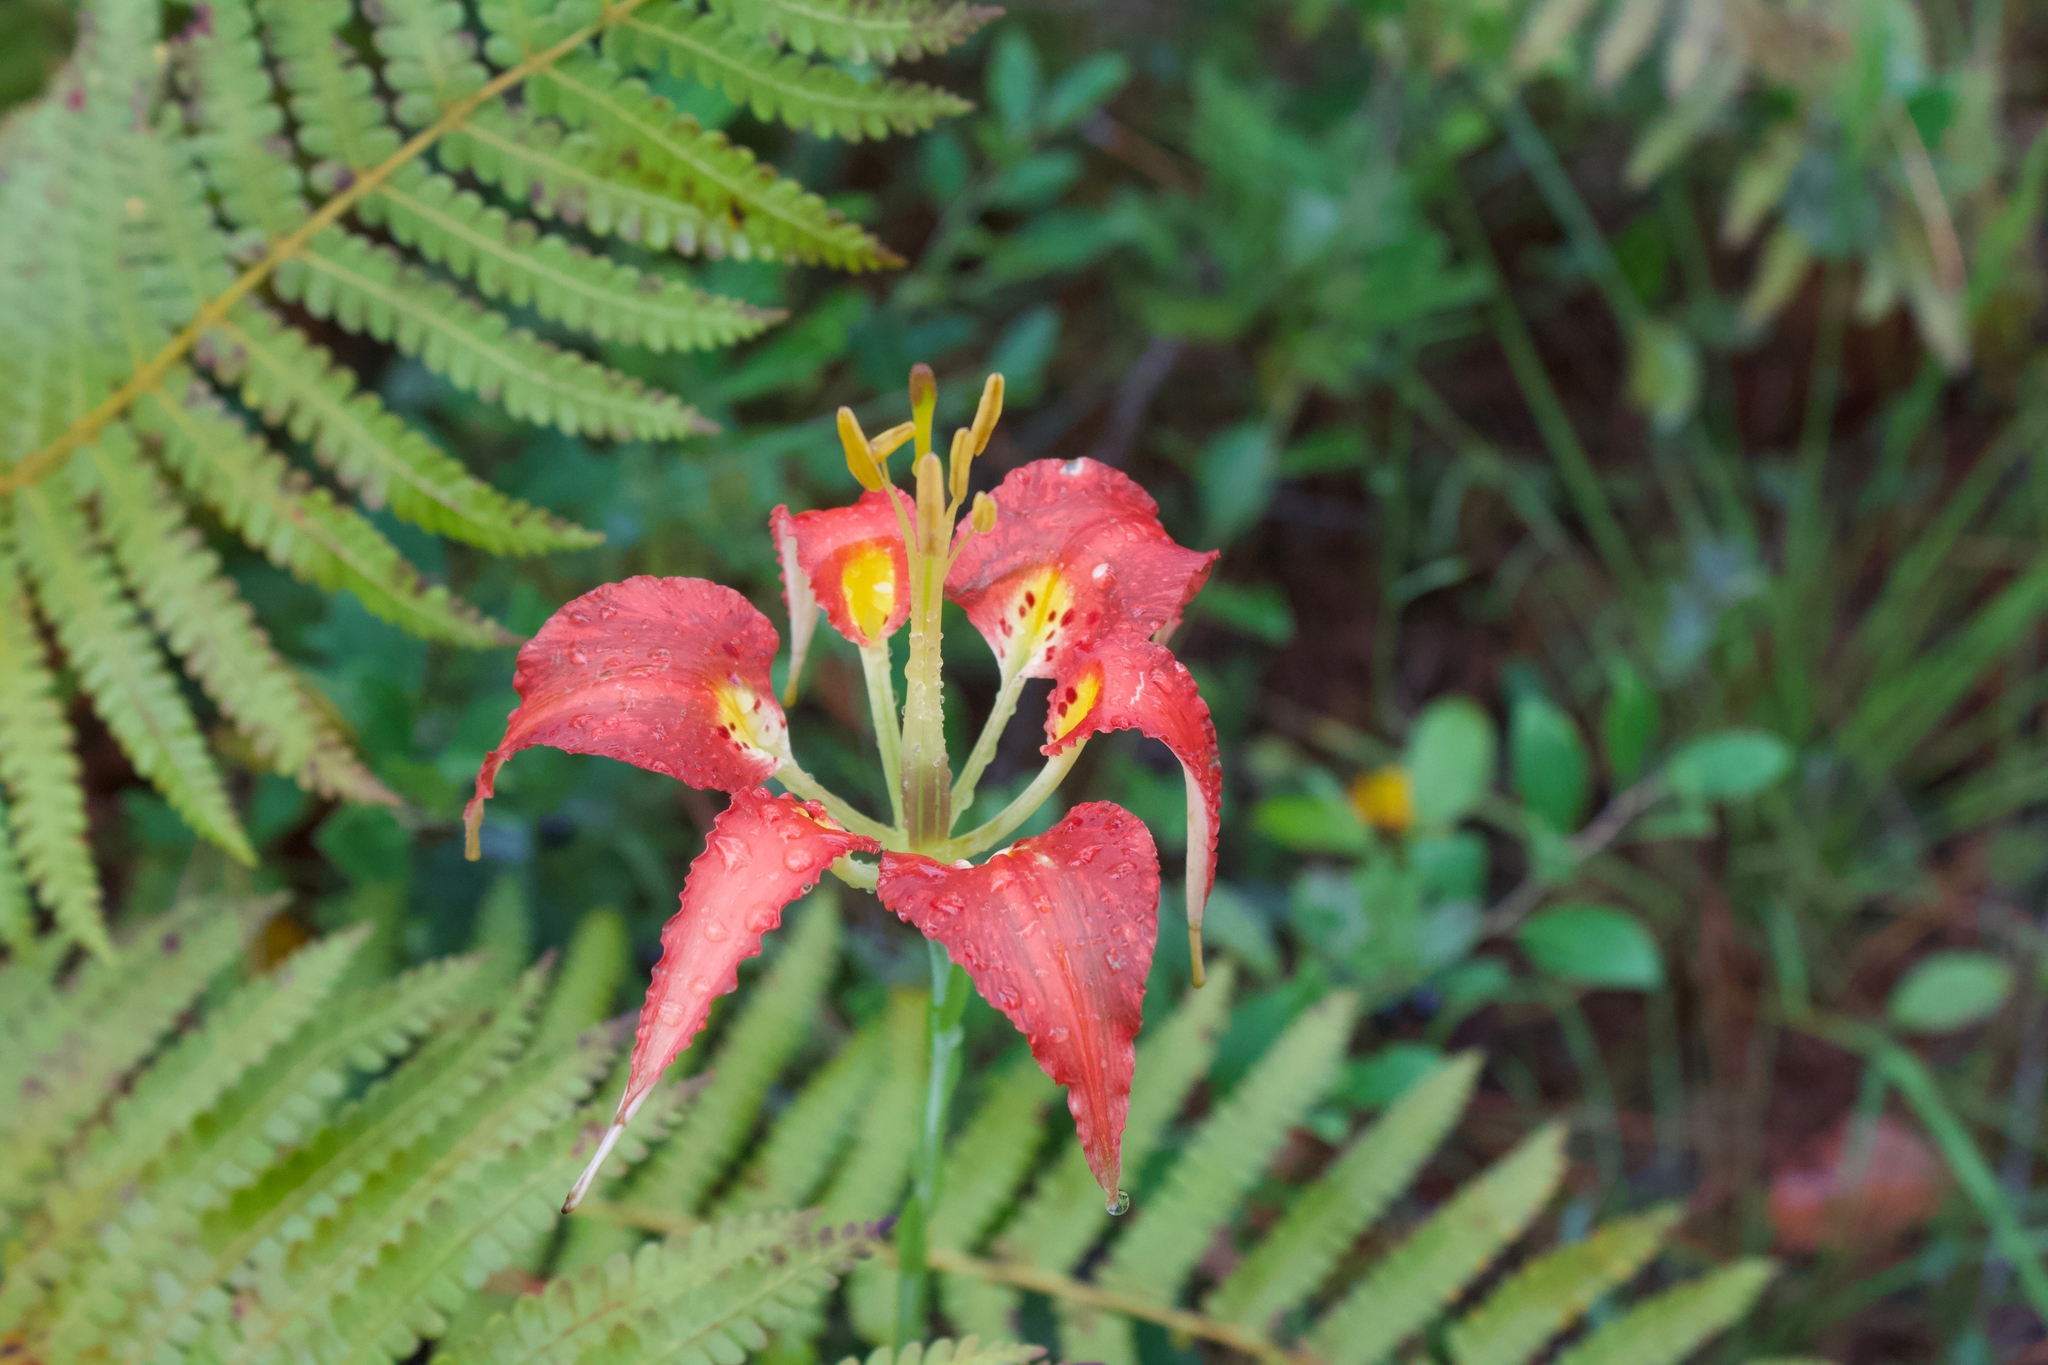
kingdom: Plantae
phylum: Tracheophyta
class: Liliopsida
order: Liliales
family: Liliaceae
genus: Lilium
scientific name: Lilium catesbaei
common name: Catesby's lily
